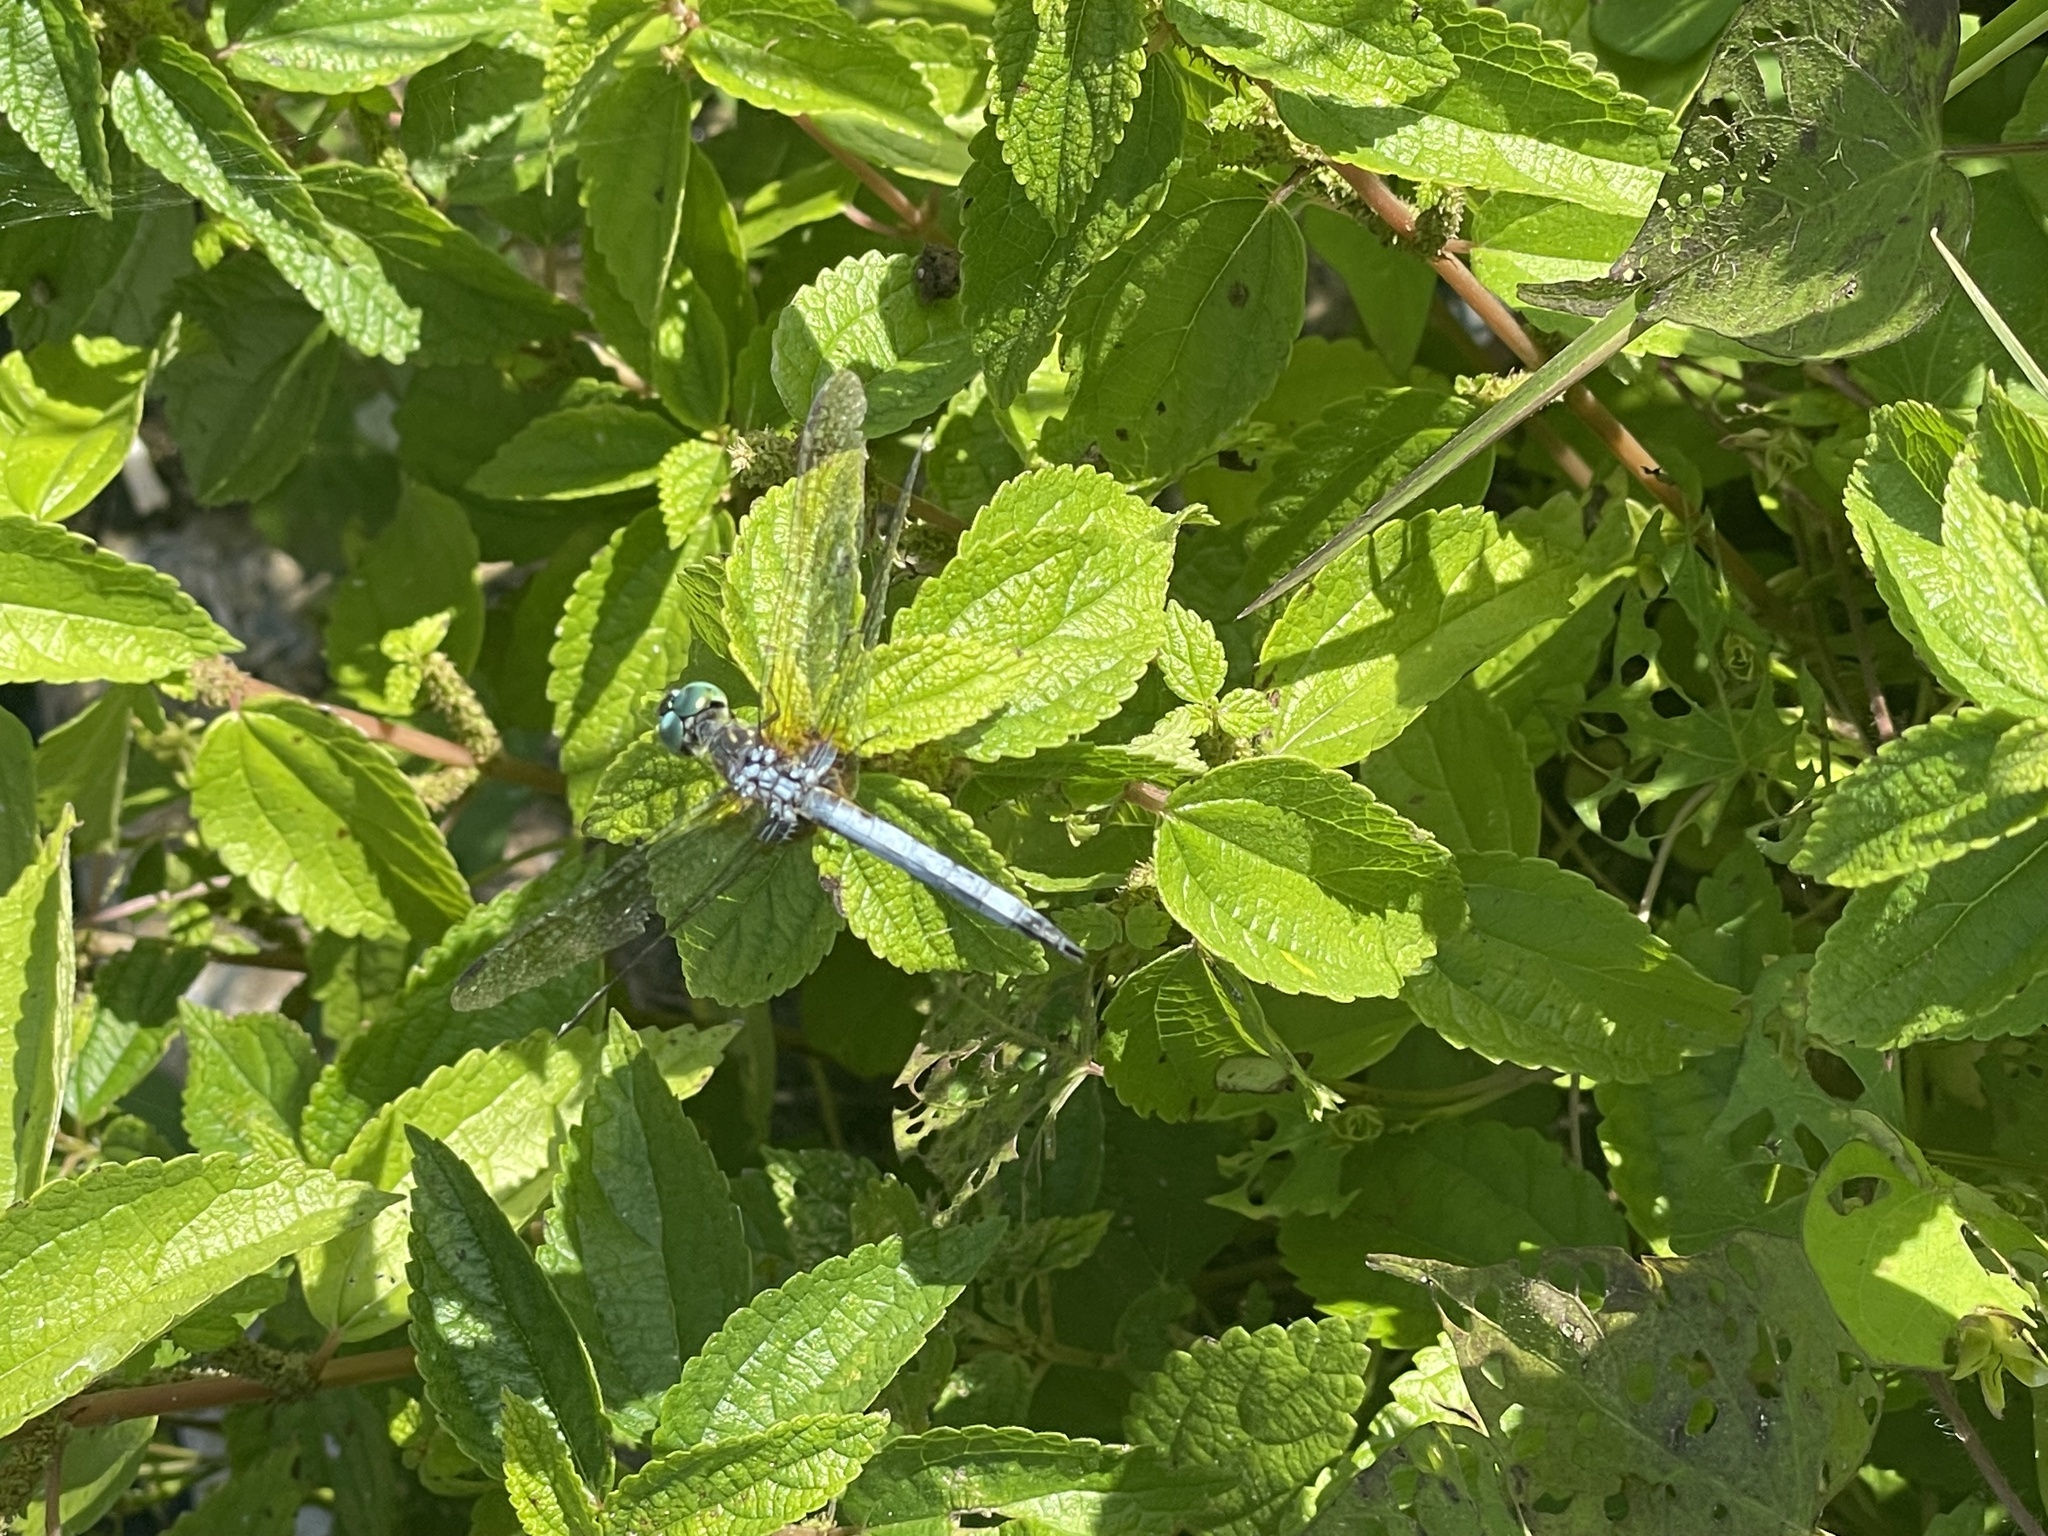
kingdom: Animalia
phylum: Arthropoda
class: Insecta
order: Odonata
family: Libellulidae
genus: Pachydiplax
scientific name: Pachydiplax longipennis
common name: Blue dasher
